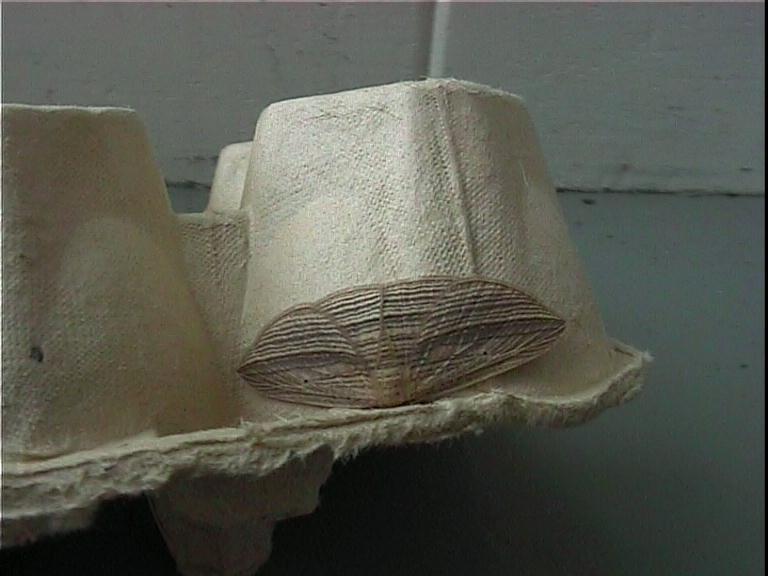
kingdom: Animalia
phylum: Arthropoda
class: Insecta
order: Lepidoptera
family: Geometridae
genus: Epiphryne
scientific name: Epiphryne verriculata
